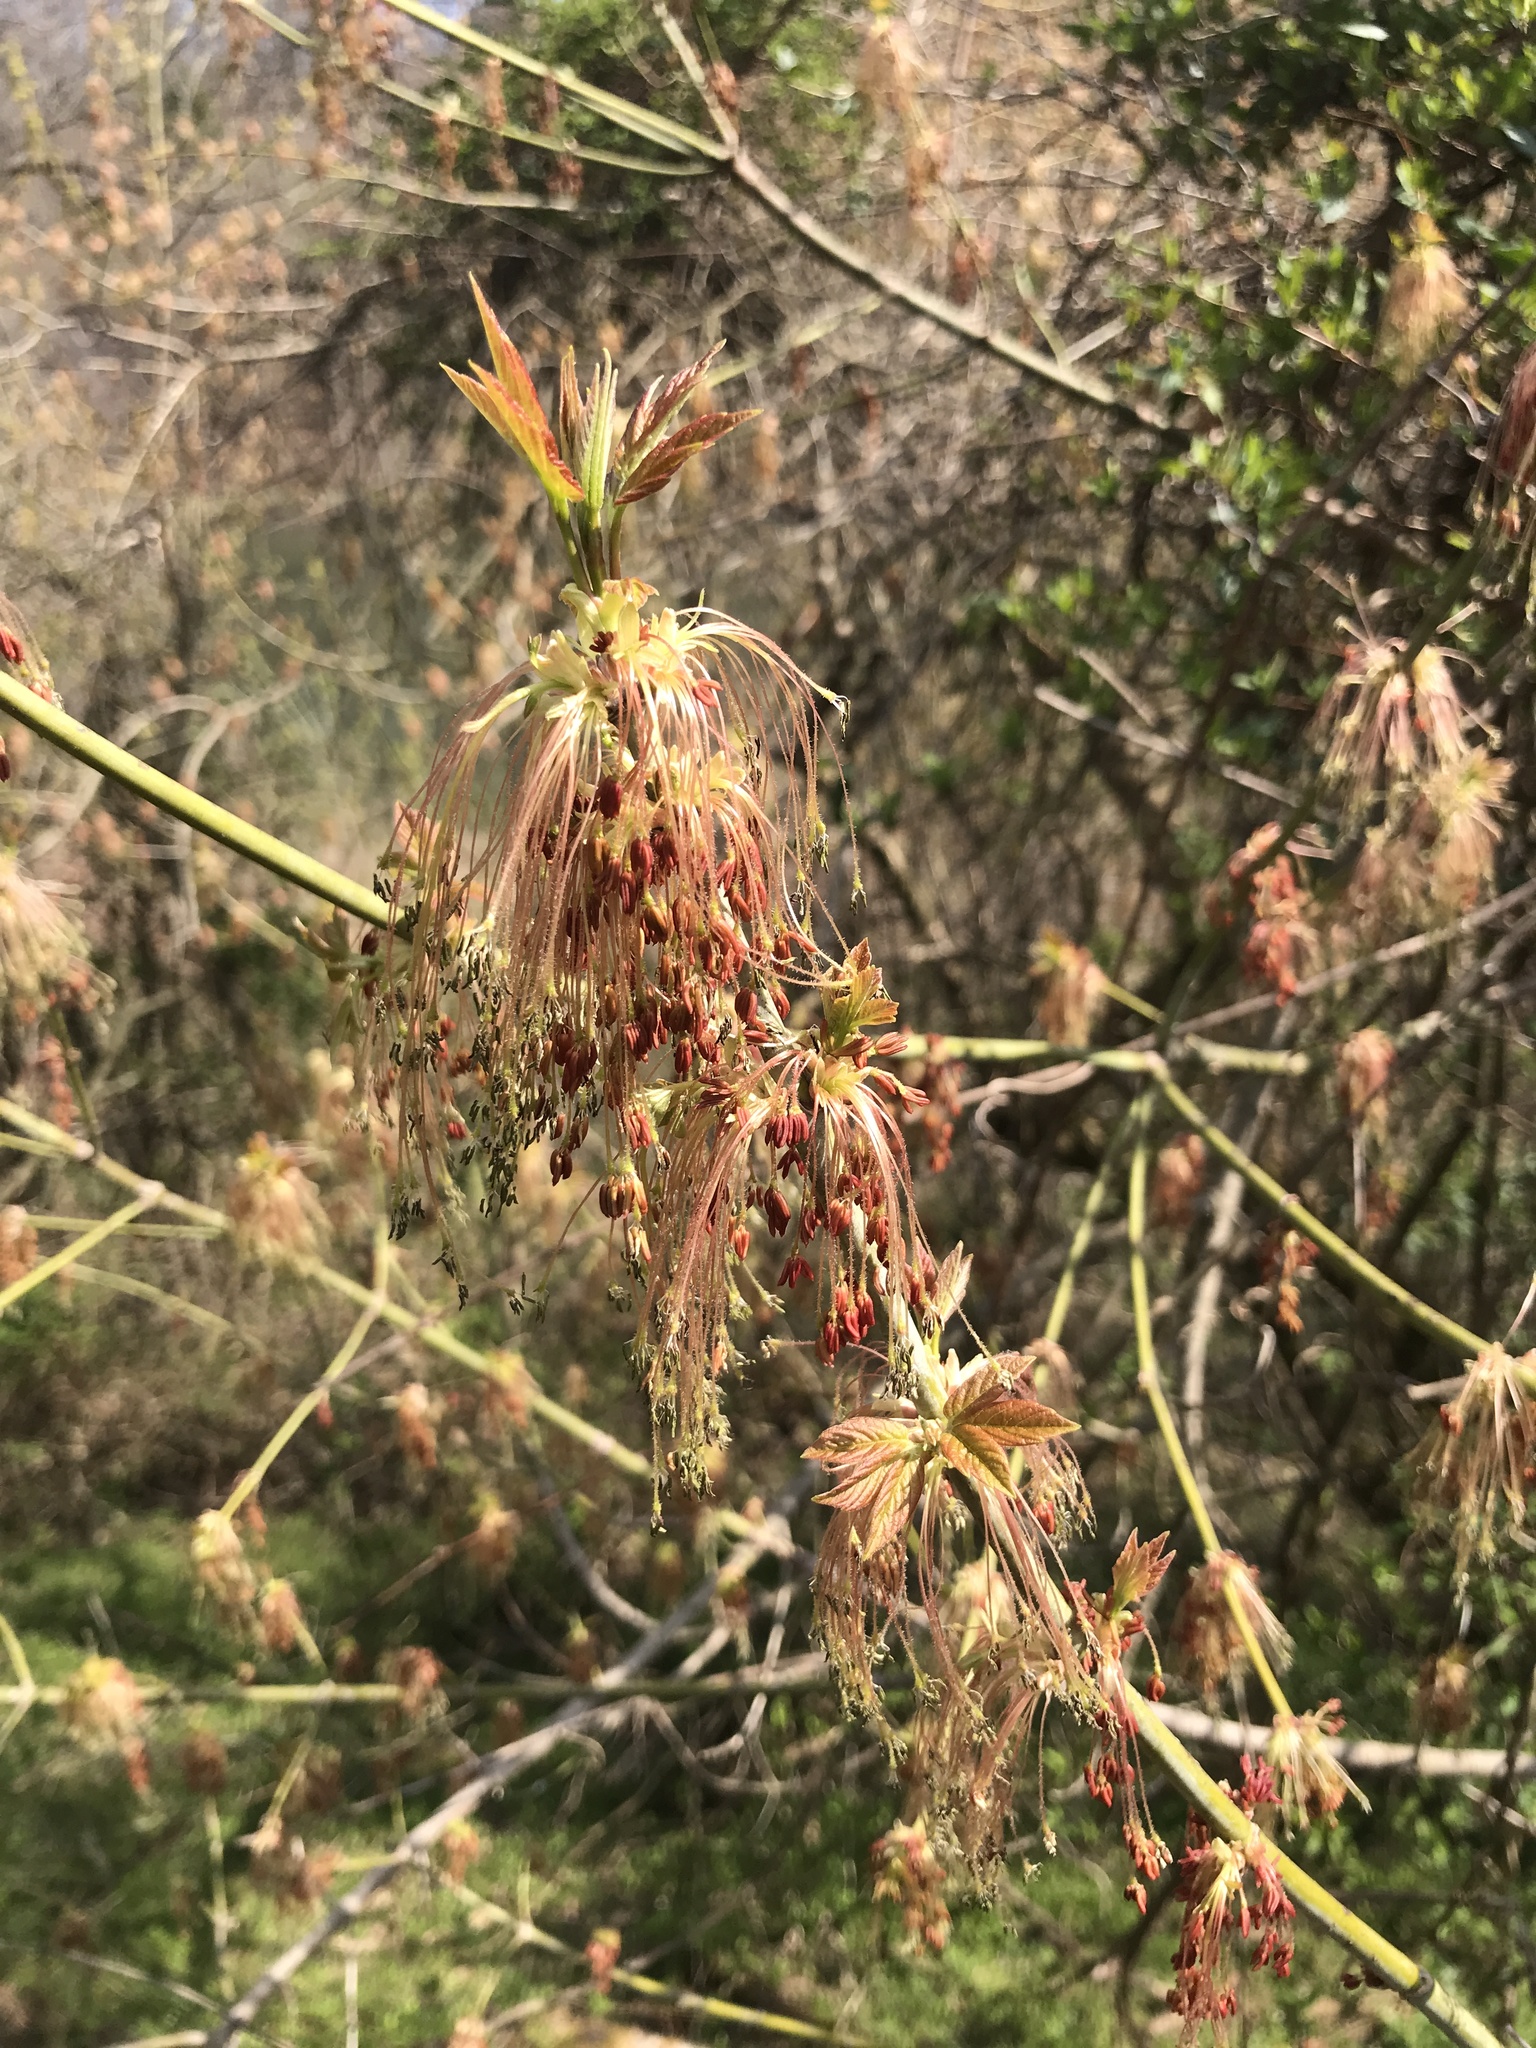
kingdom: Plantae
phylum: Tracheophyta
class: Magnoliopsida
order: Sapindales
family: Sapindaceae
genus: Acer
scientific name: Acer negundo
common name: Ashleaf maple
